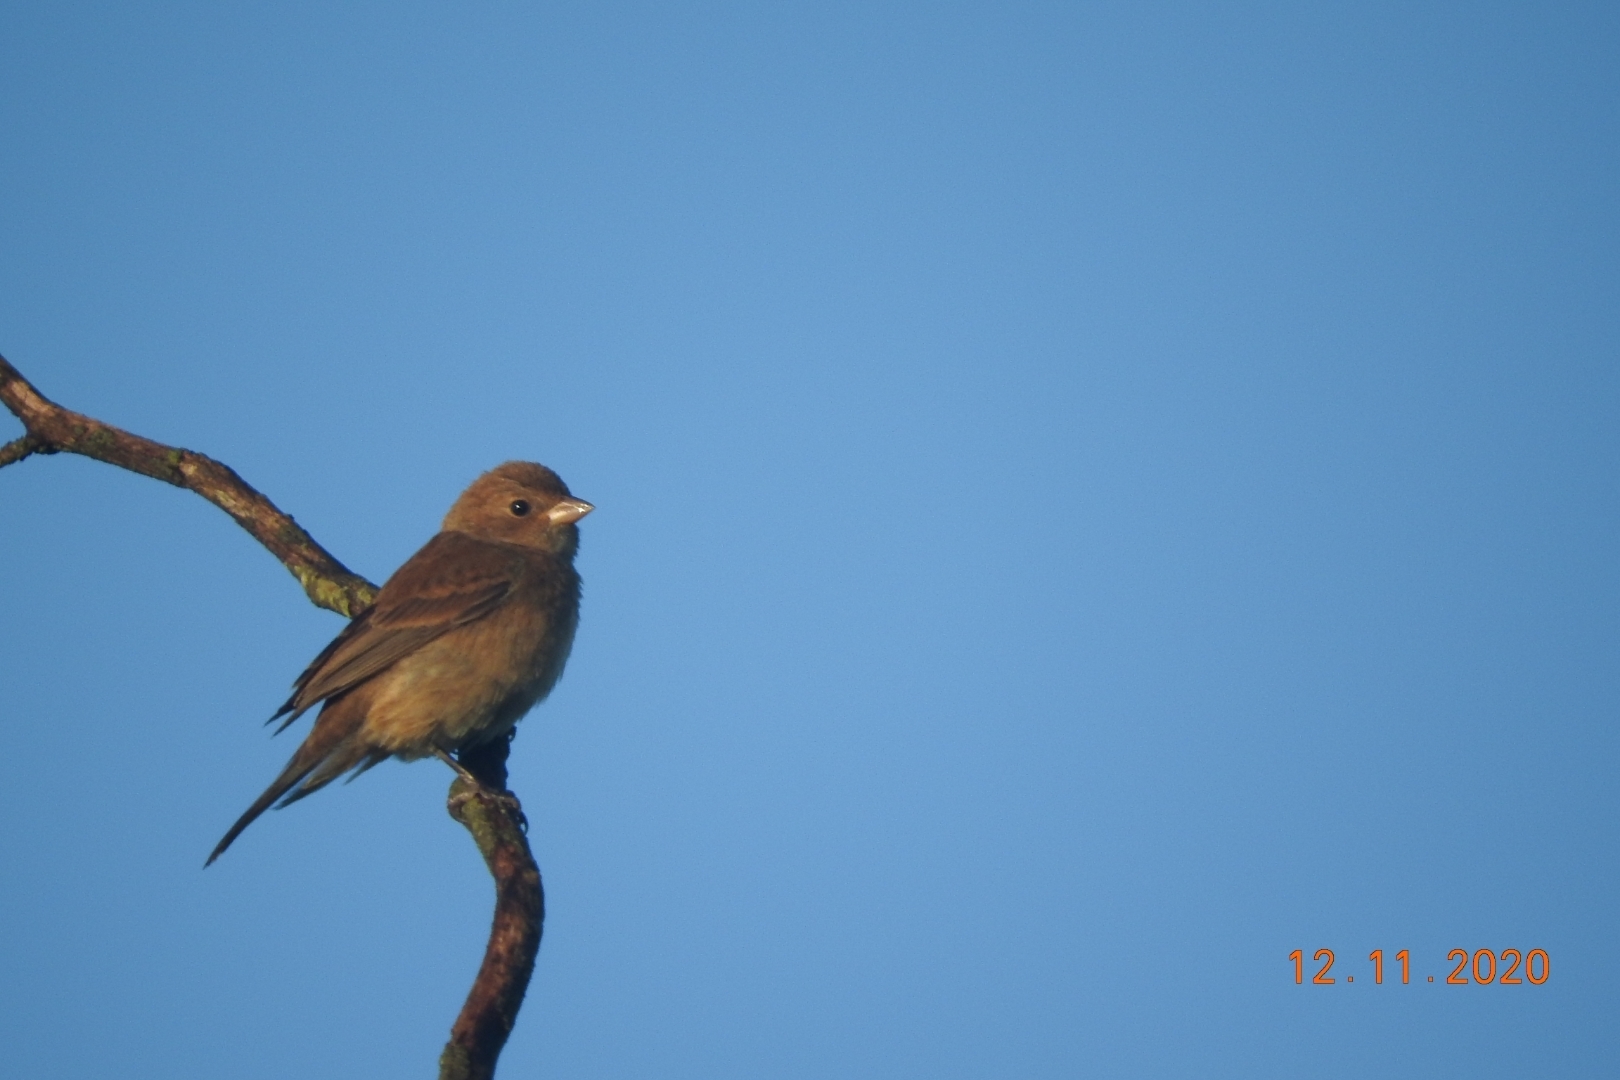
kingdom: Animalia
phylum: Chordata
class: Aves
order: Passeriformes
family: Cardinalidae
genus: Passerina
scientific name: Passerina cyanea
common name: Indigo bunting
